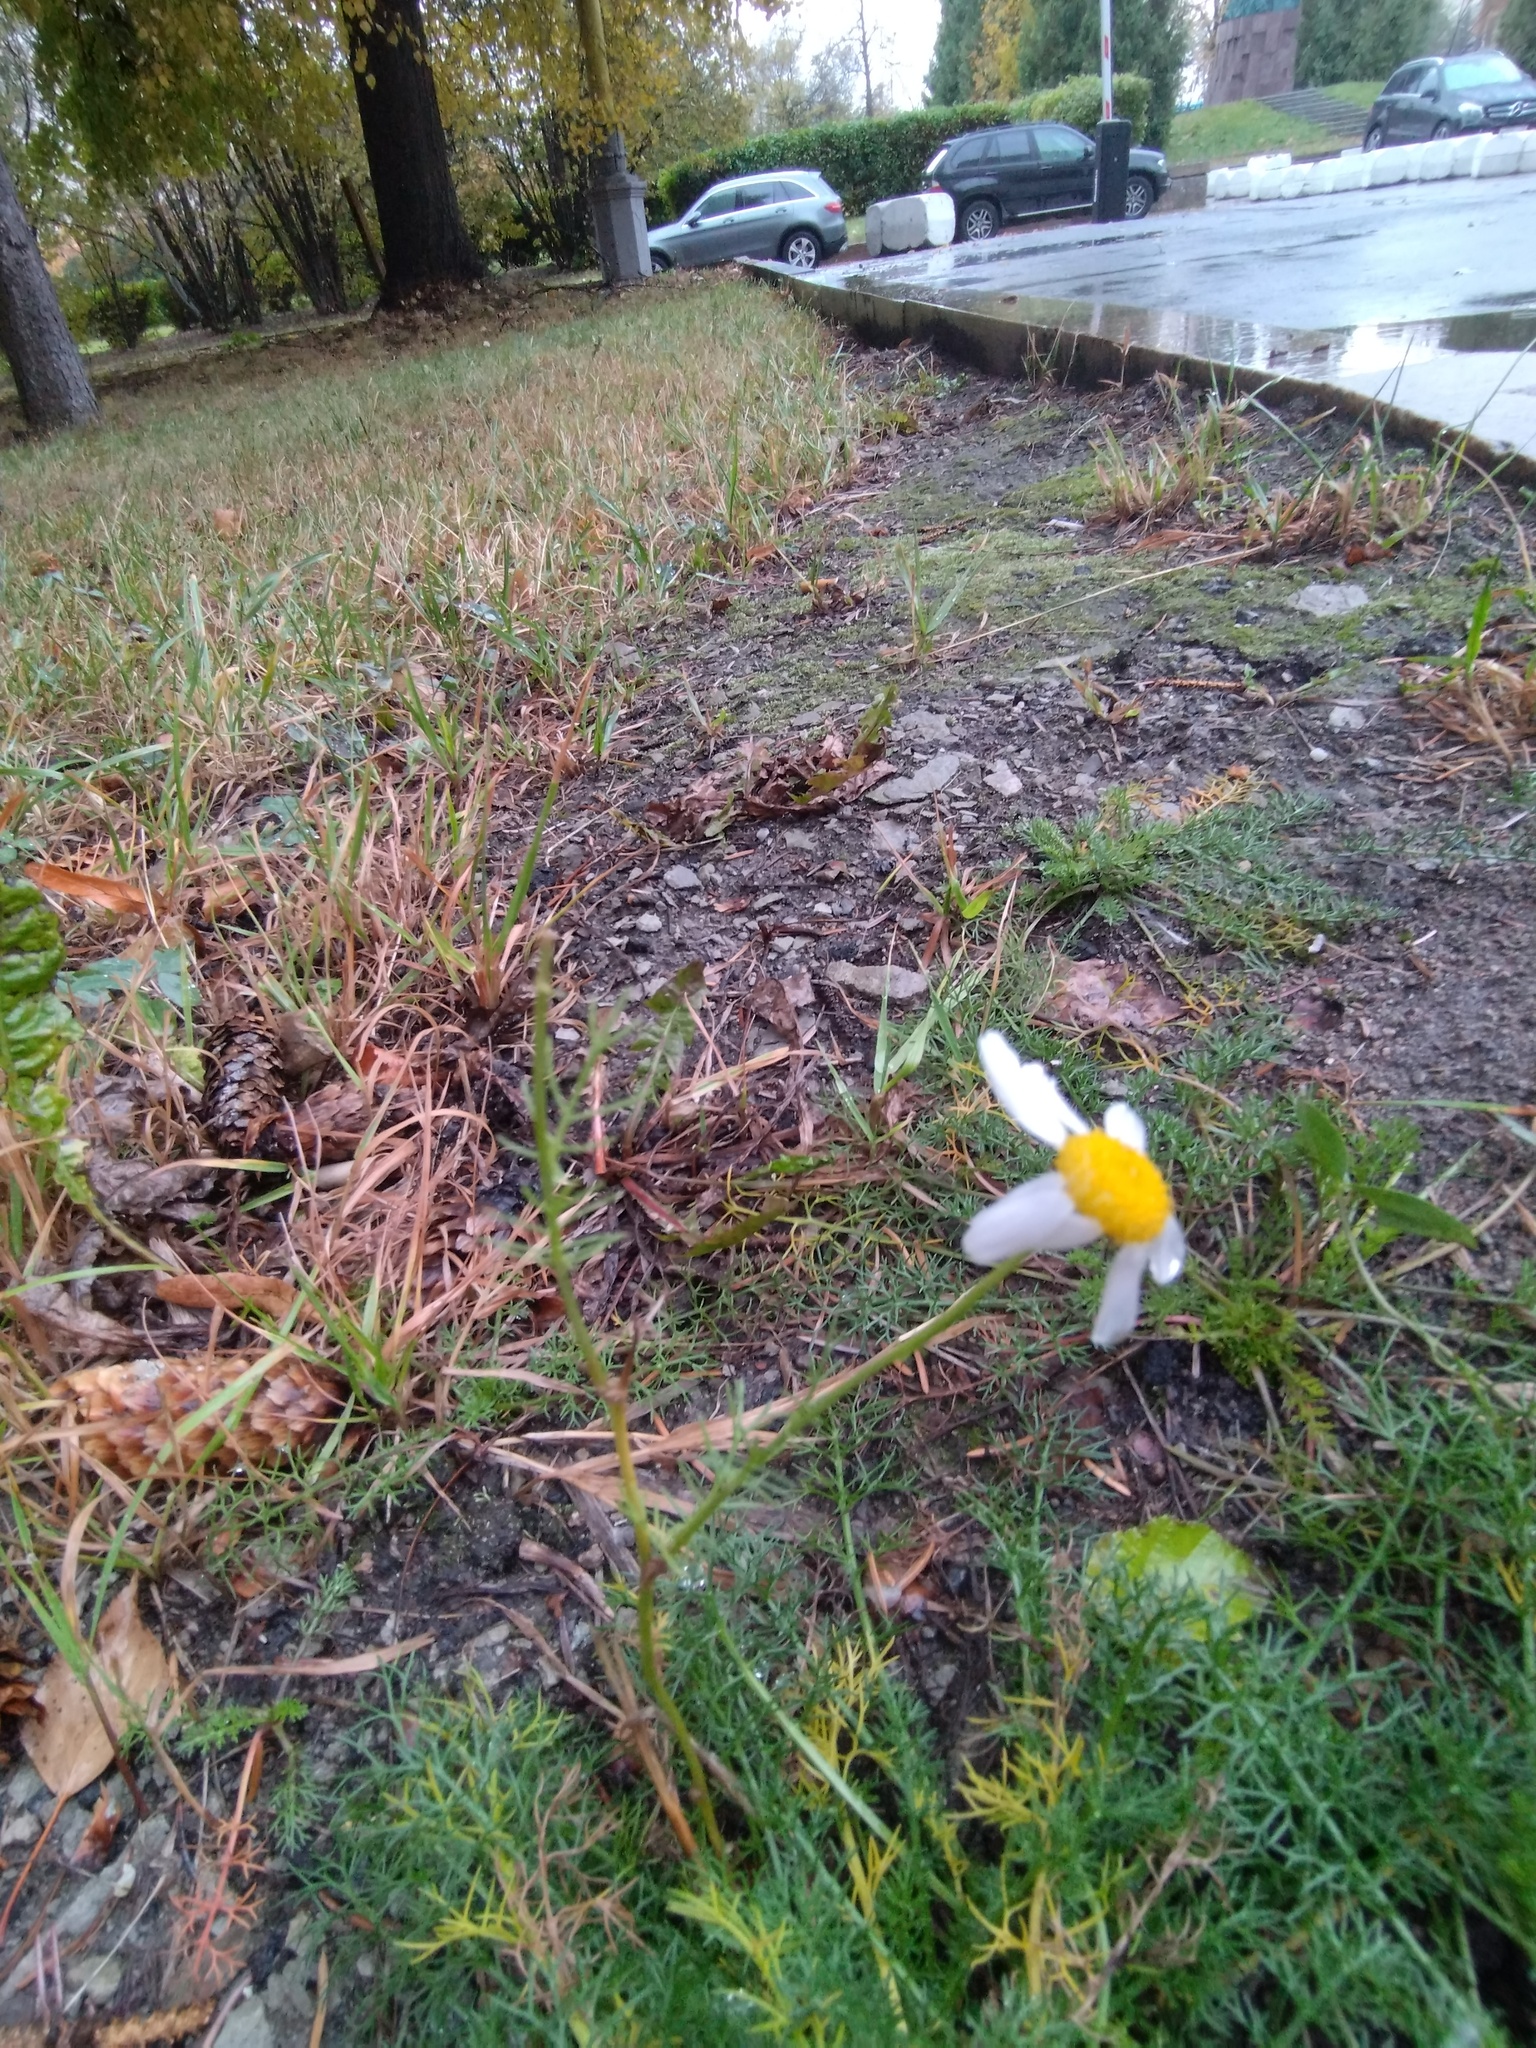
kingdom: Plantae
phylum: Tracheophyta
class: Magnoliopsida
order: Asterales
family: Asteraceae
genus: Tripleurospermum
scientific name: Tripleurospermum inodorum
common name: Scentless mayweed
